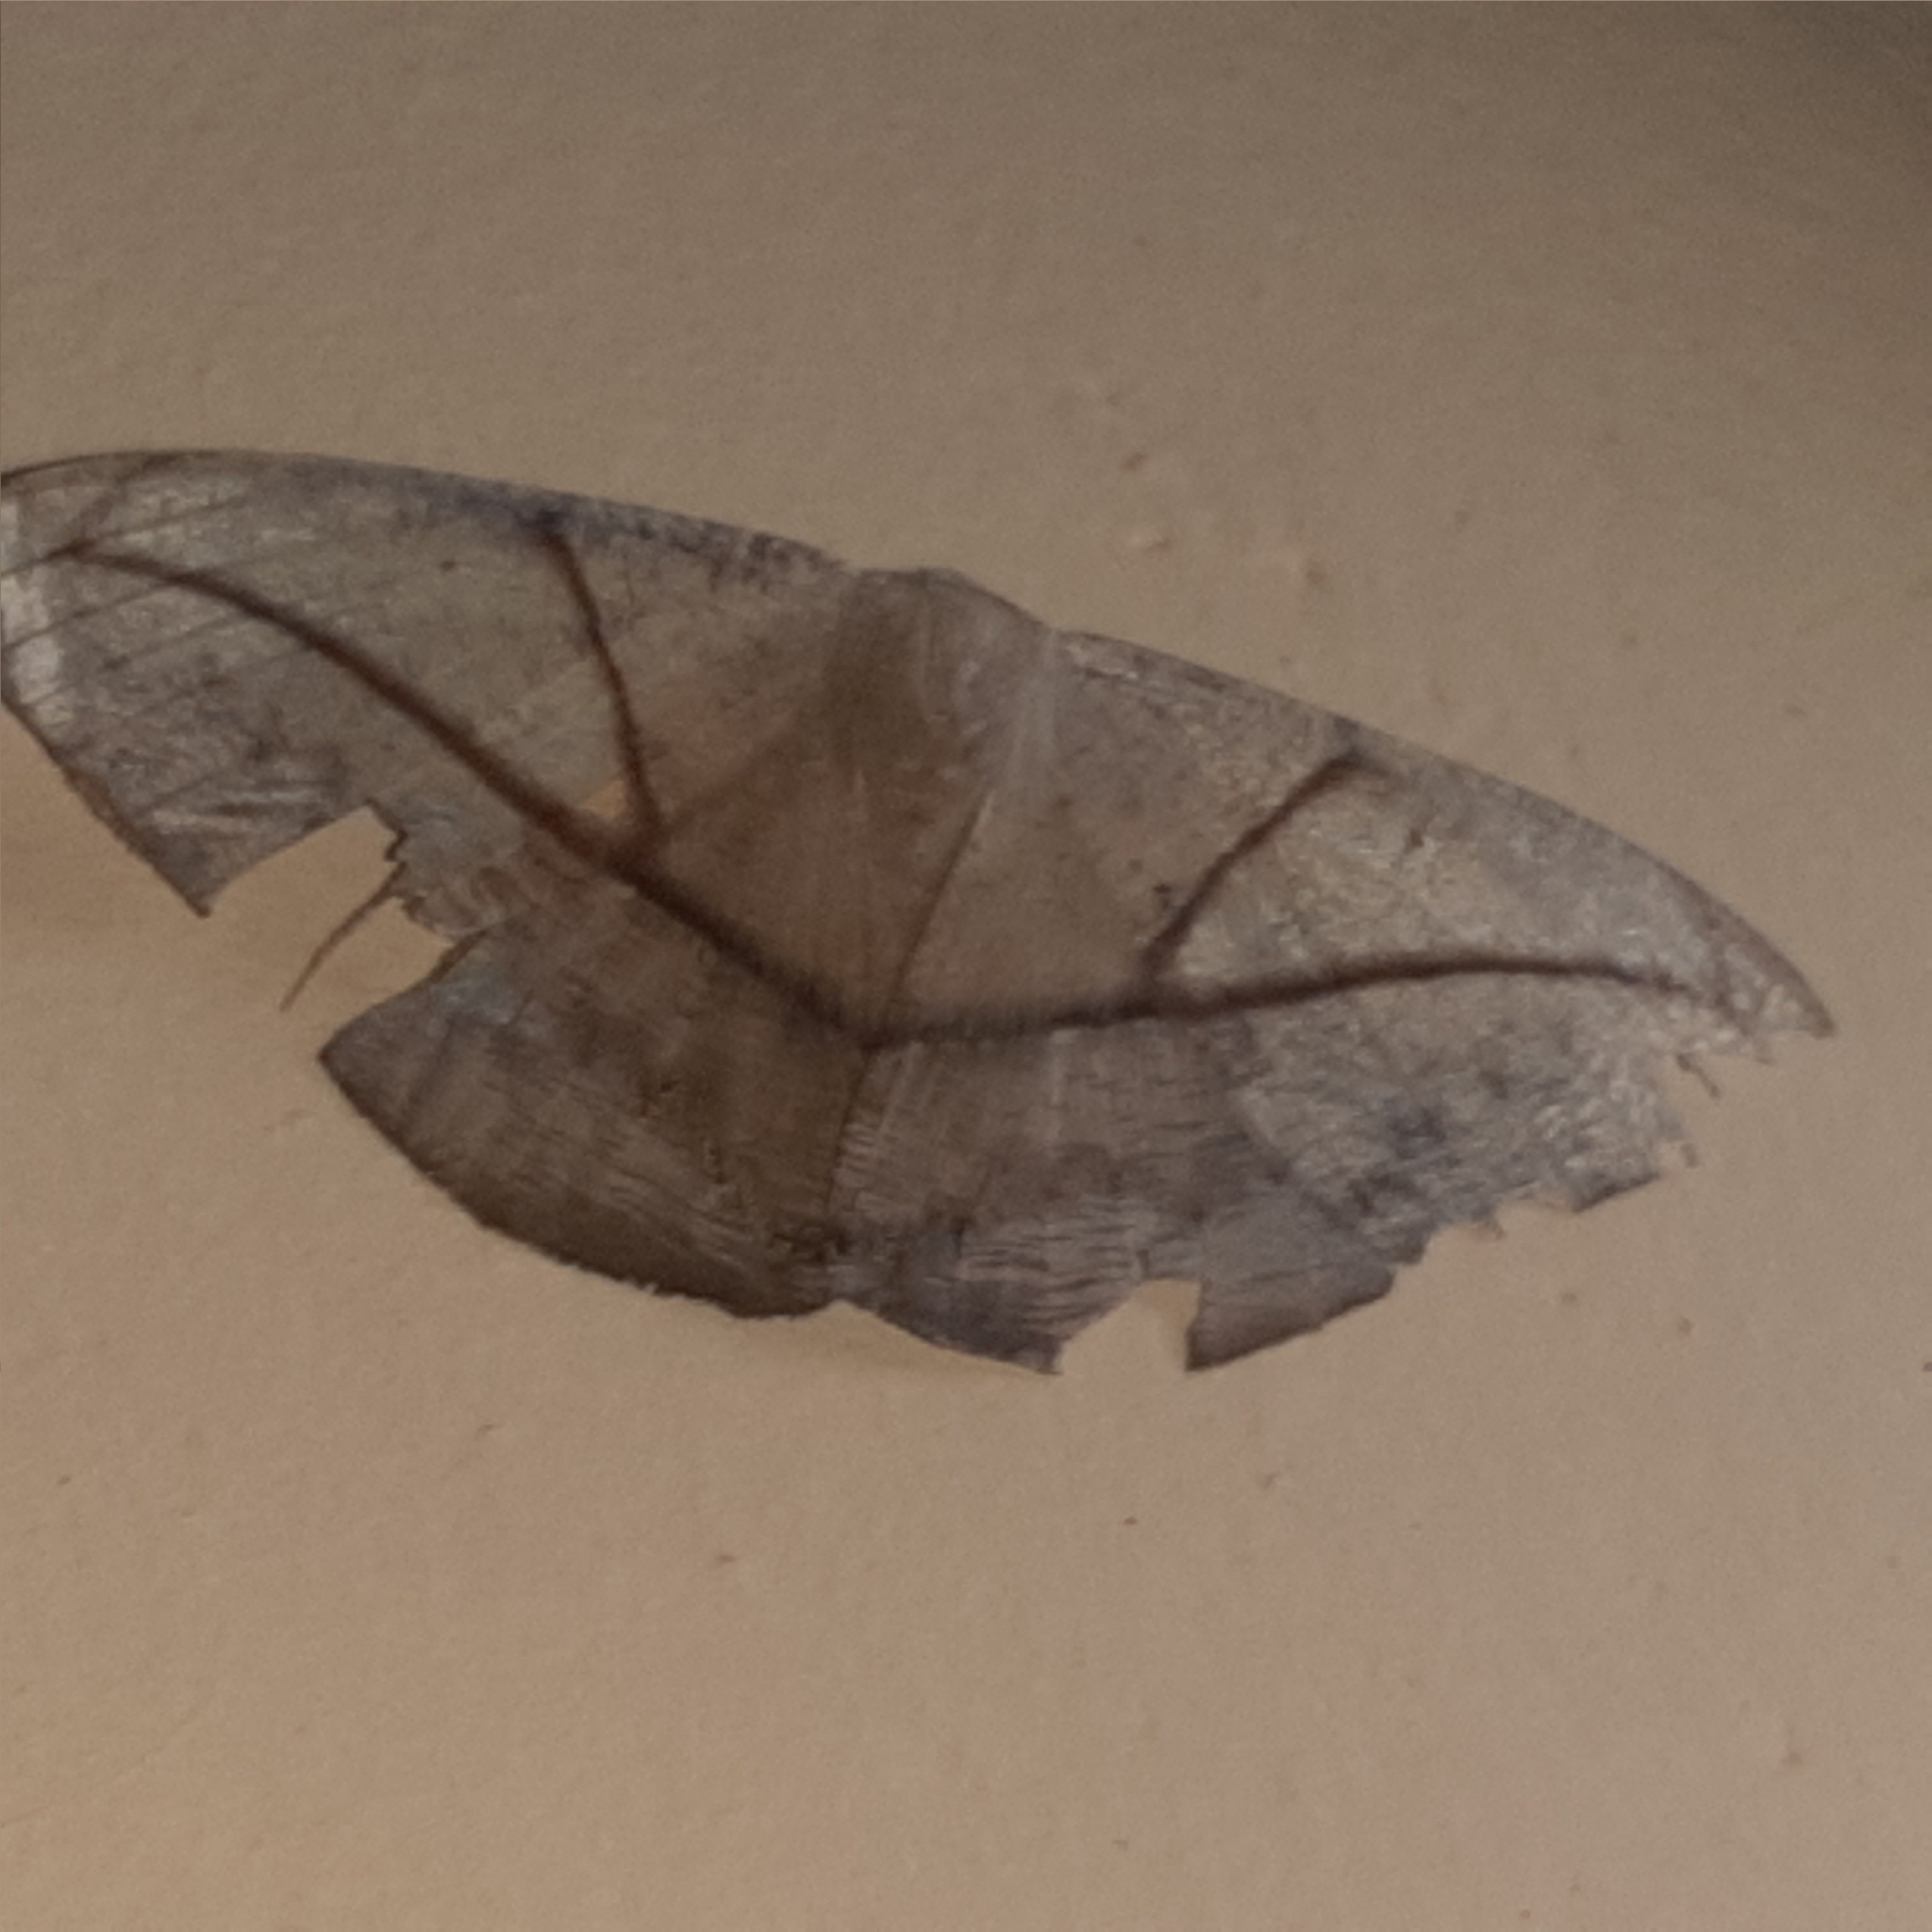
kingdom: Animalia
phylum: Arthropoda
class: Insecta
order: Lepidoptera
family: Geometridae
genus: Oxydia
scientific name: Oxydia trychiata
